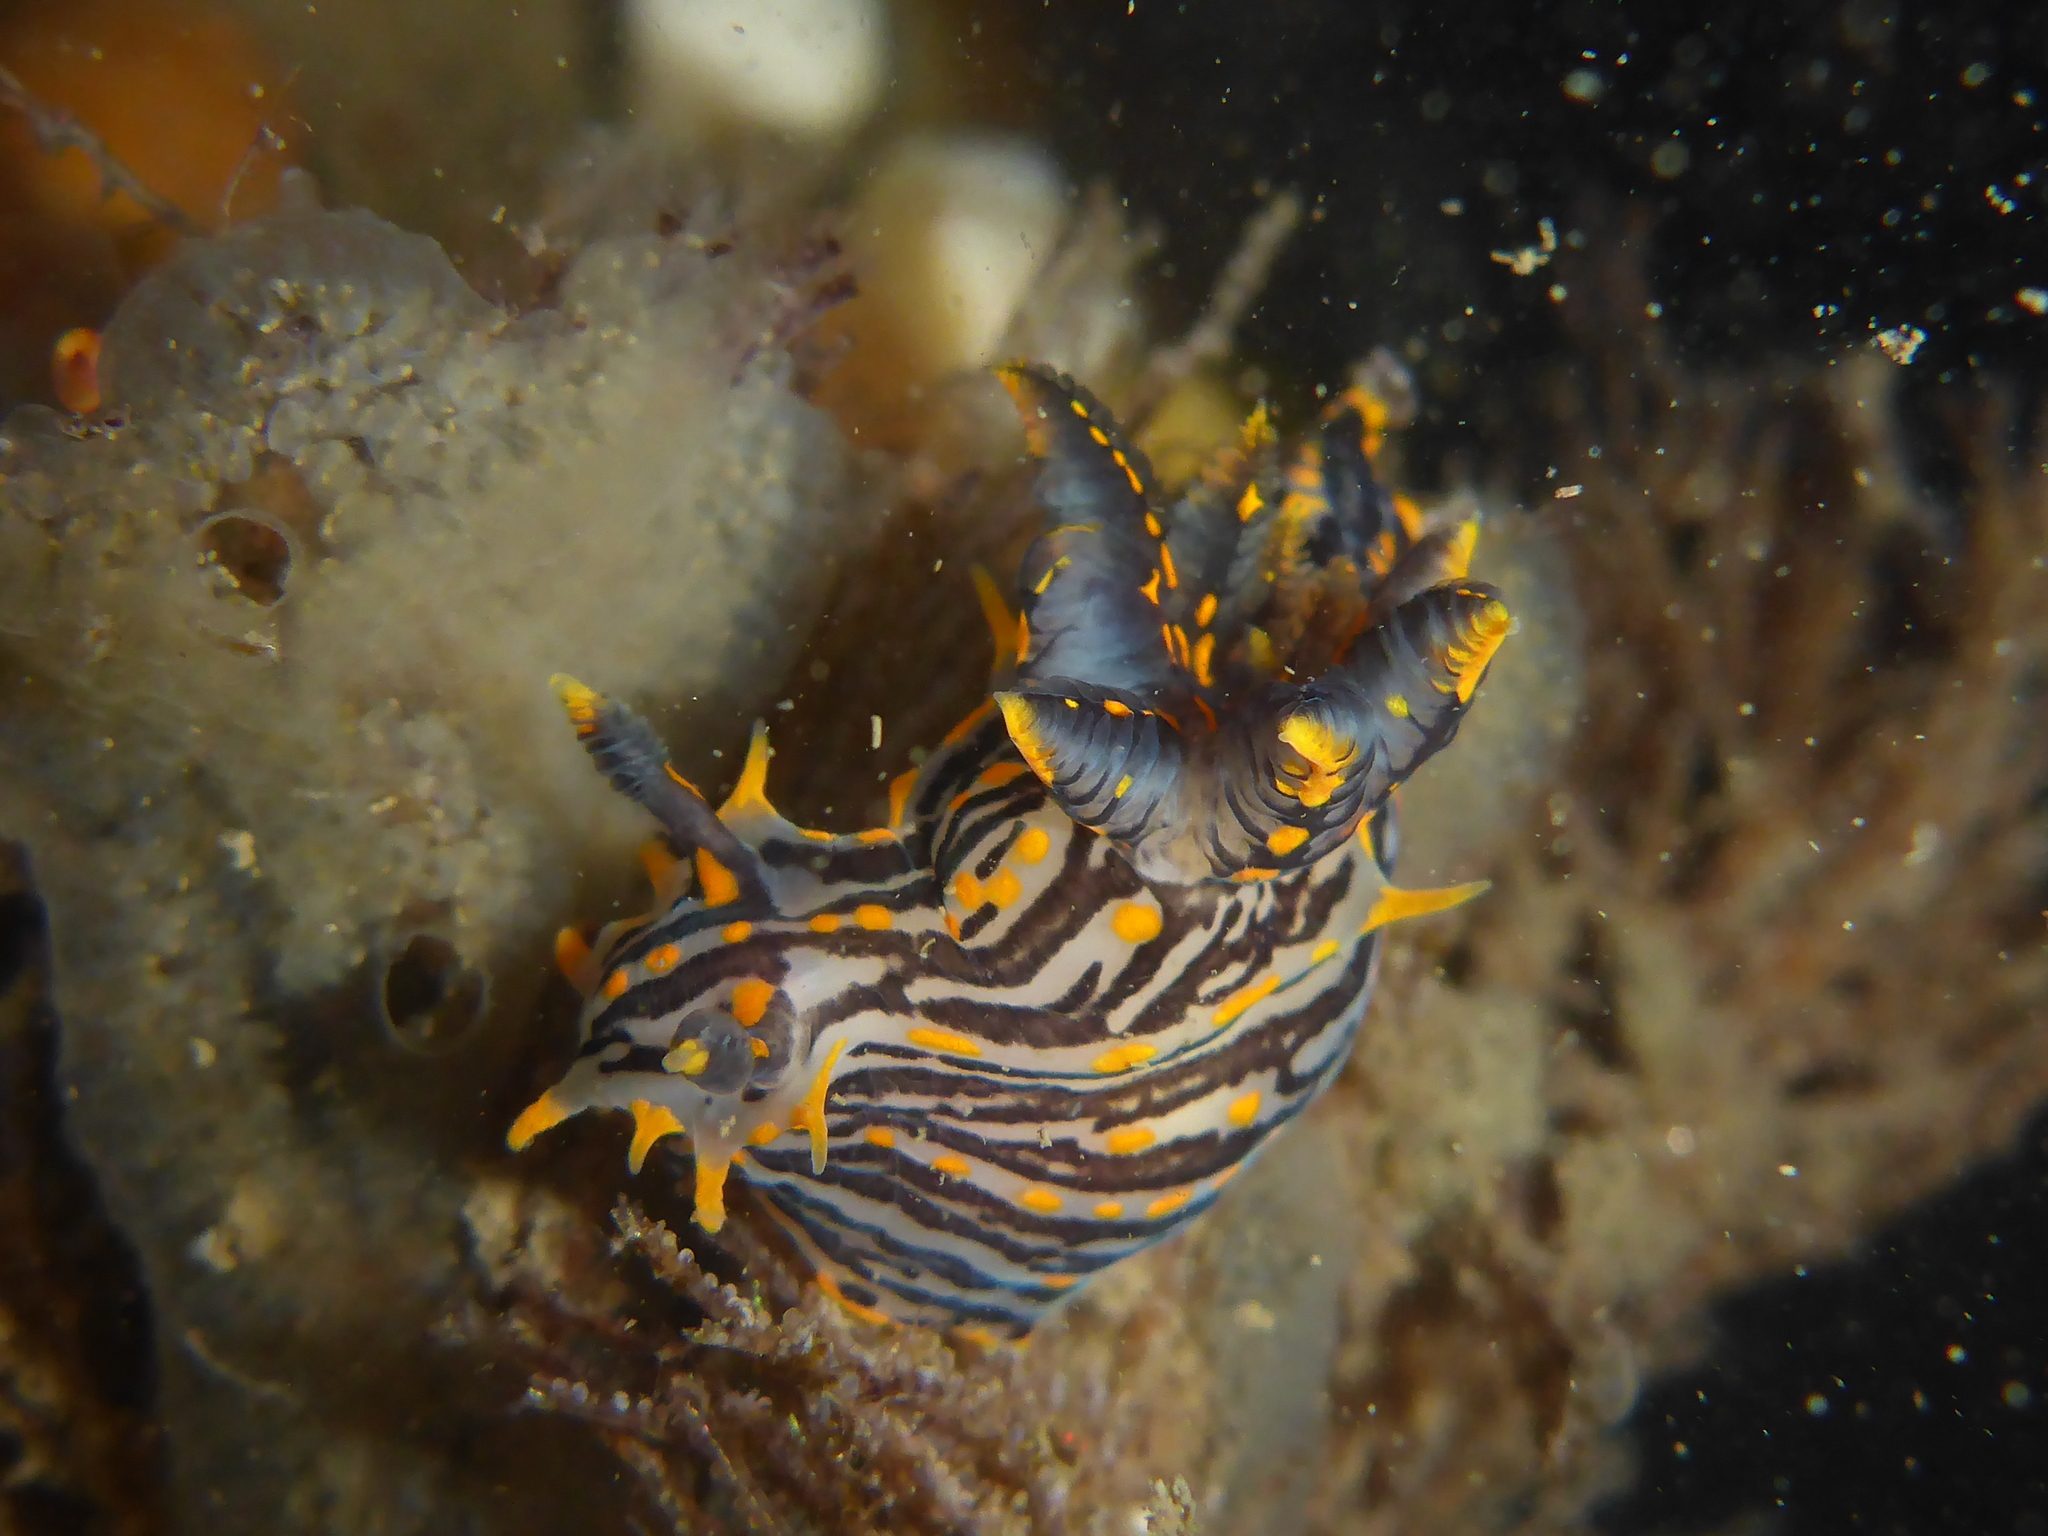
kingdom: Animalia
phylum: Mollusca
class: Gastropoda
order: Nudibranchia
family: Polyceridae
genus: Polycera
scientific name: Polycera atra
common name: Orange-spike polycera
